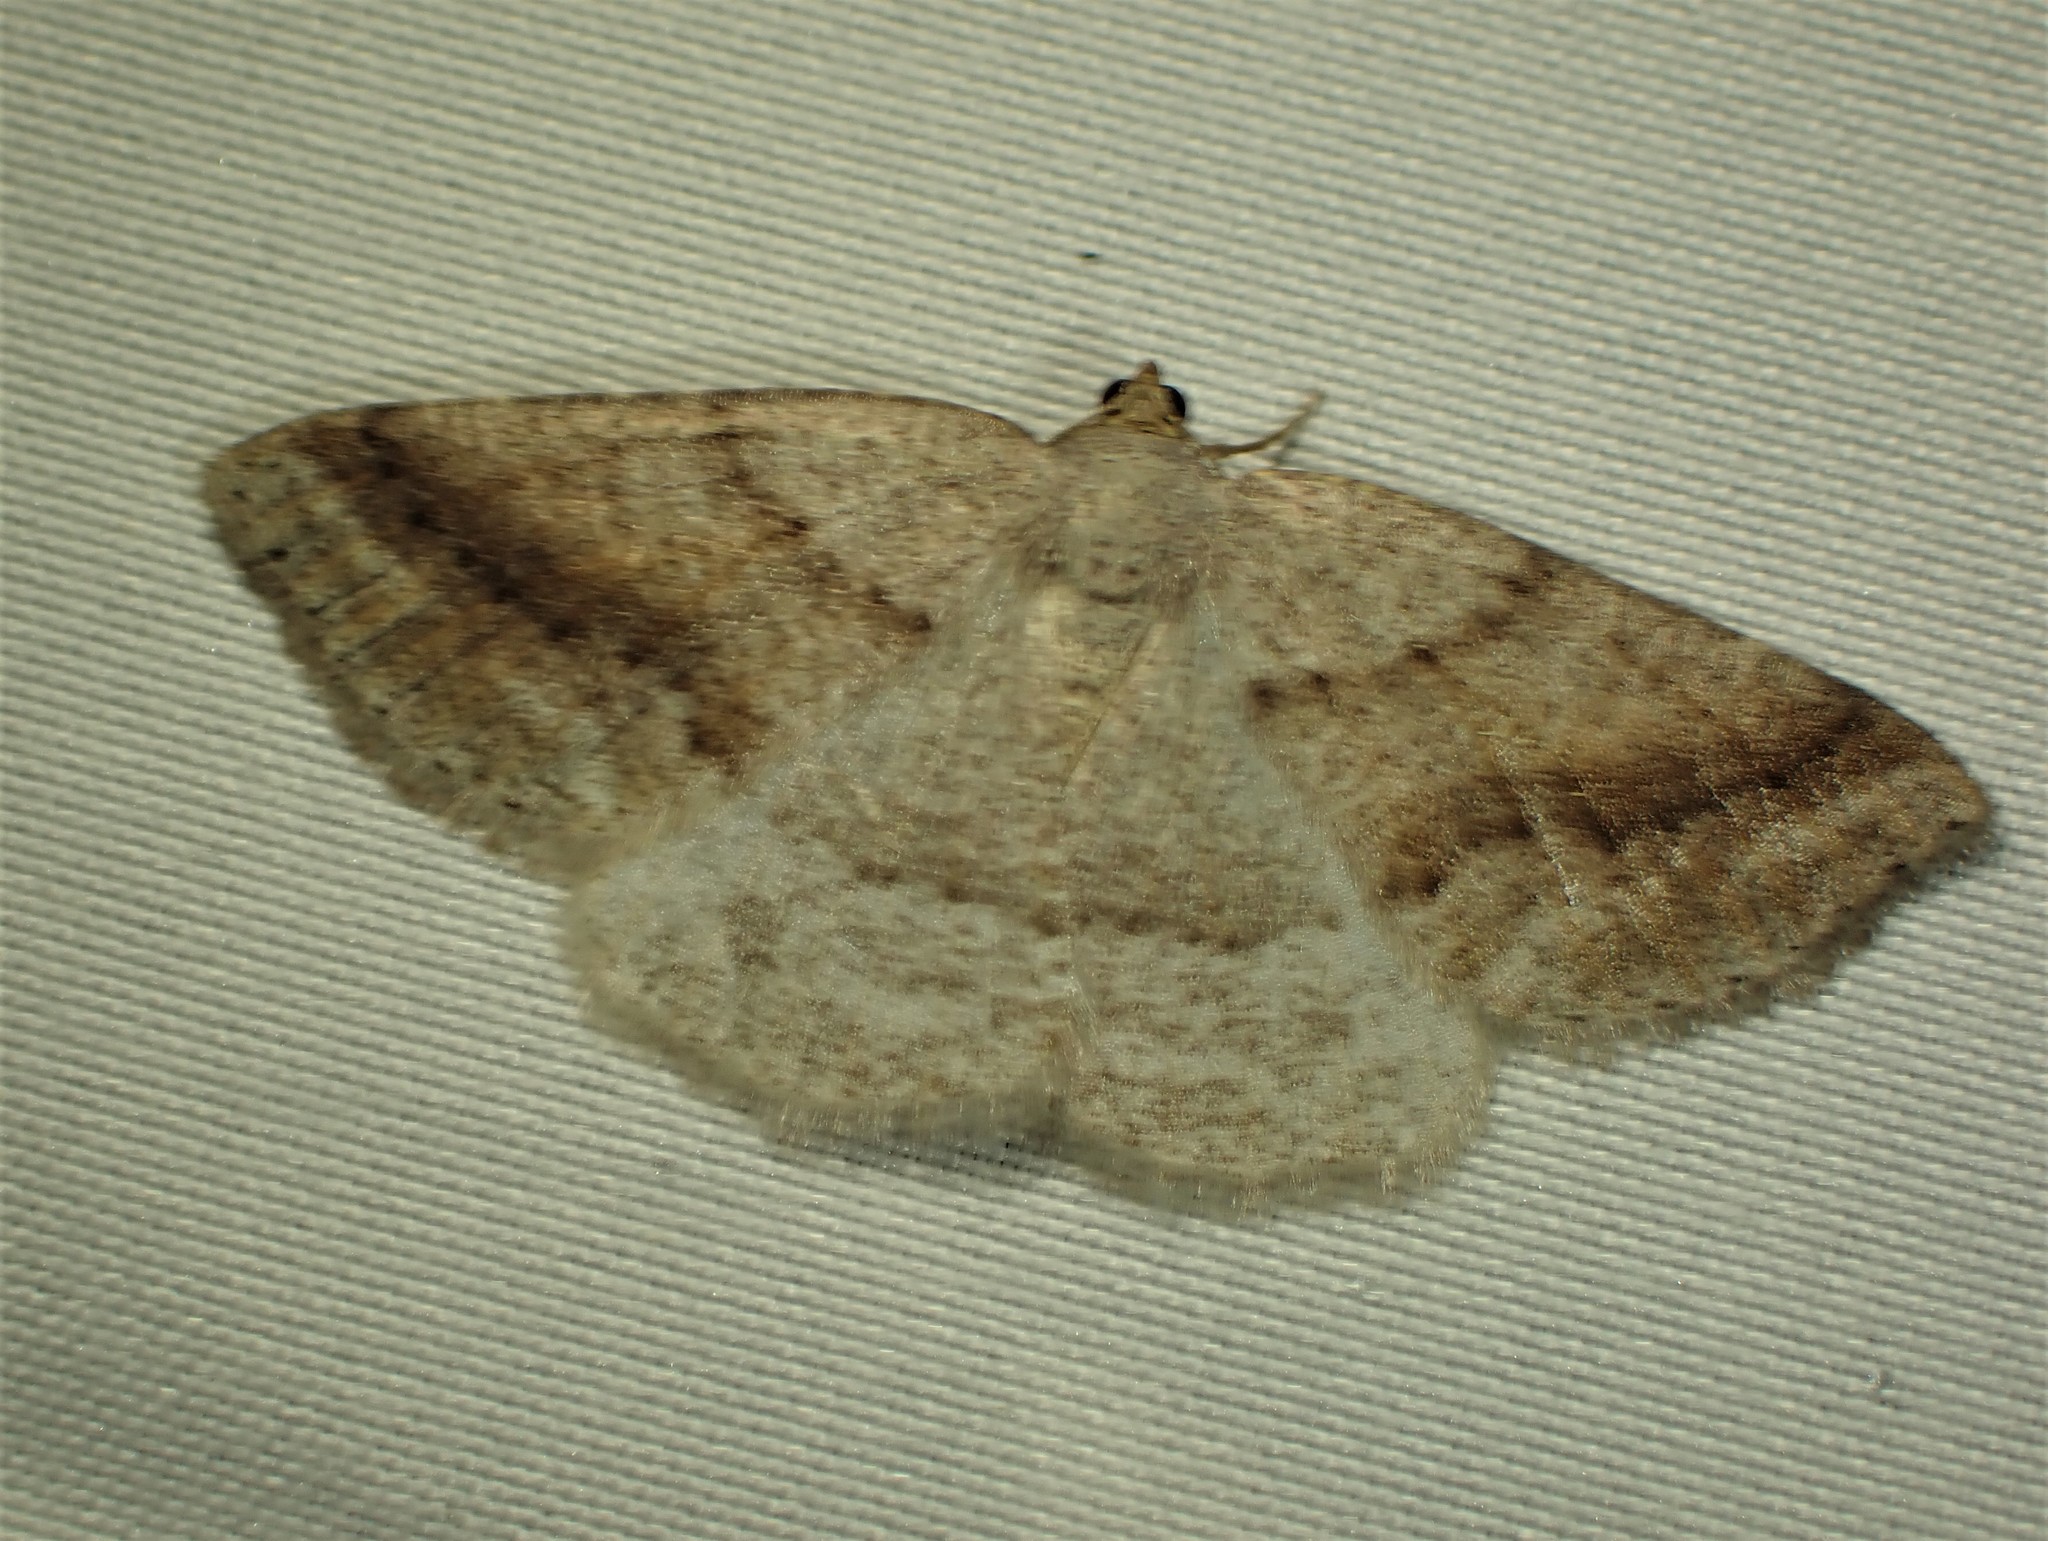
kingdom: Animalia
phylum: Arthropoda
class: Insecta
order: Lepidoptera
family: Geometridae
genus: Tacparia
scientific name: Tacparia detersata
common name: Pale alder moth
